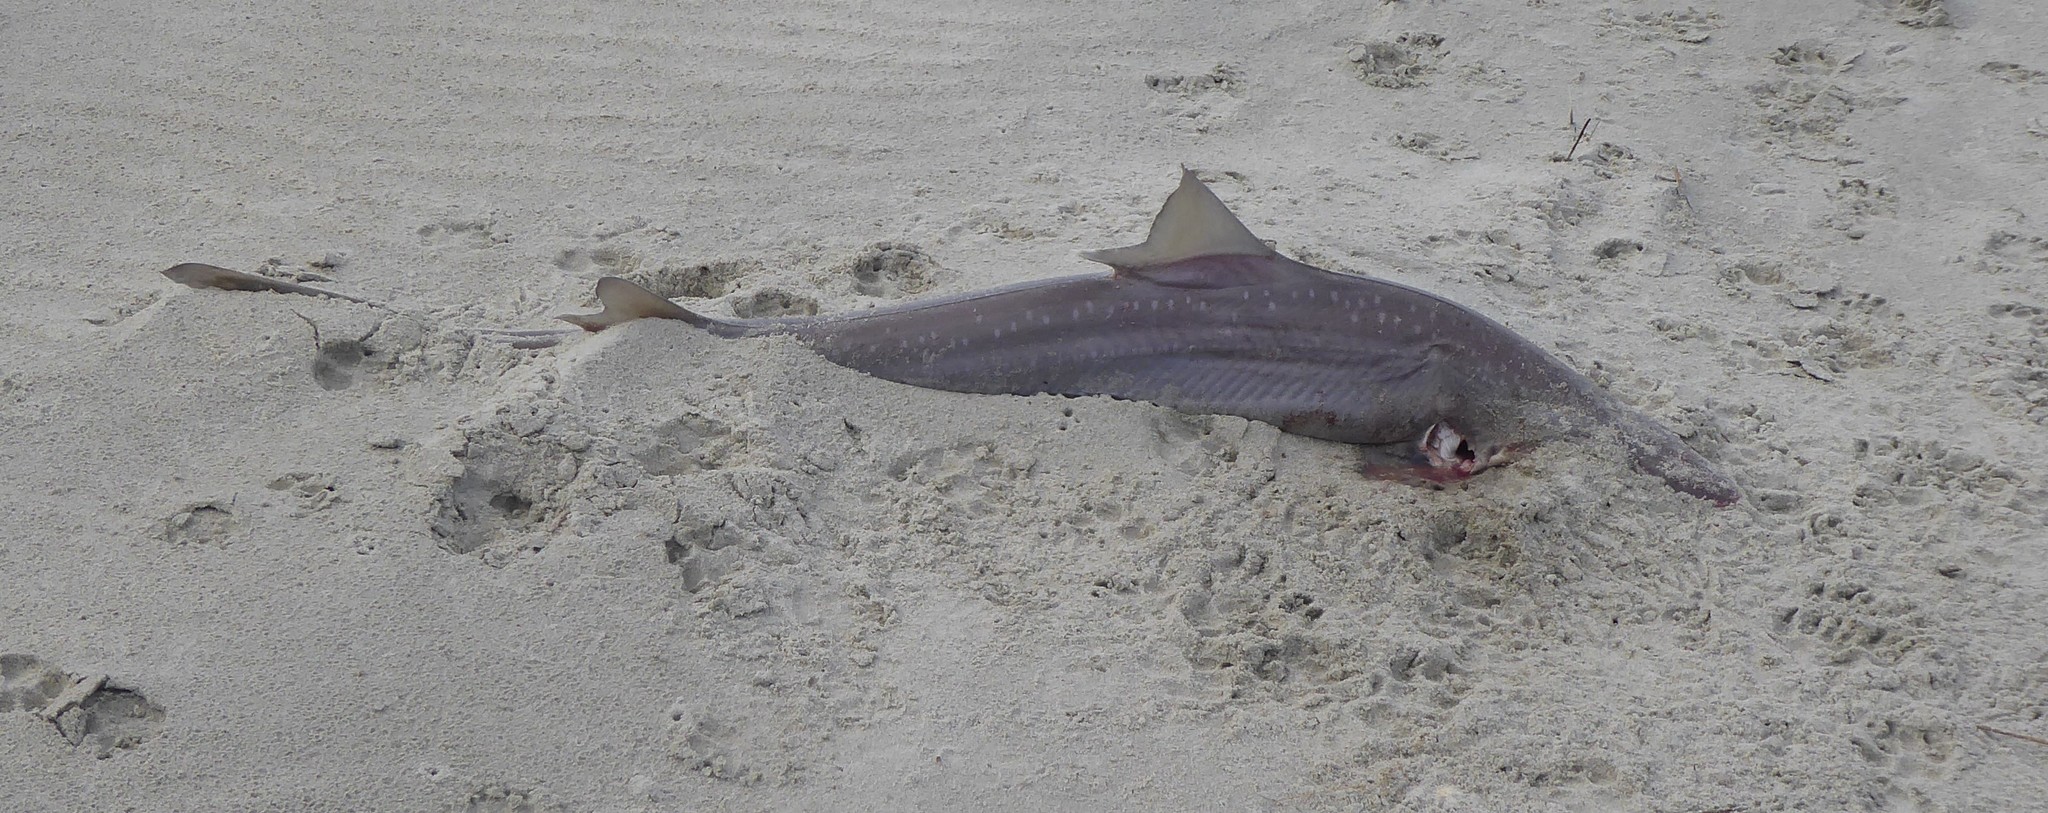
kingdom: Animalia
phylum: Chordata
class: Elasmobranchii
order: Carcharhiniformes
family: Triakidae
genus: Mustelus
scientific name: Mustelus lenticulatus
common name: Gummy shark
